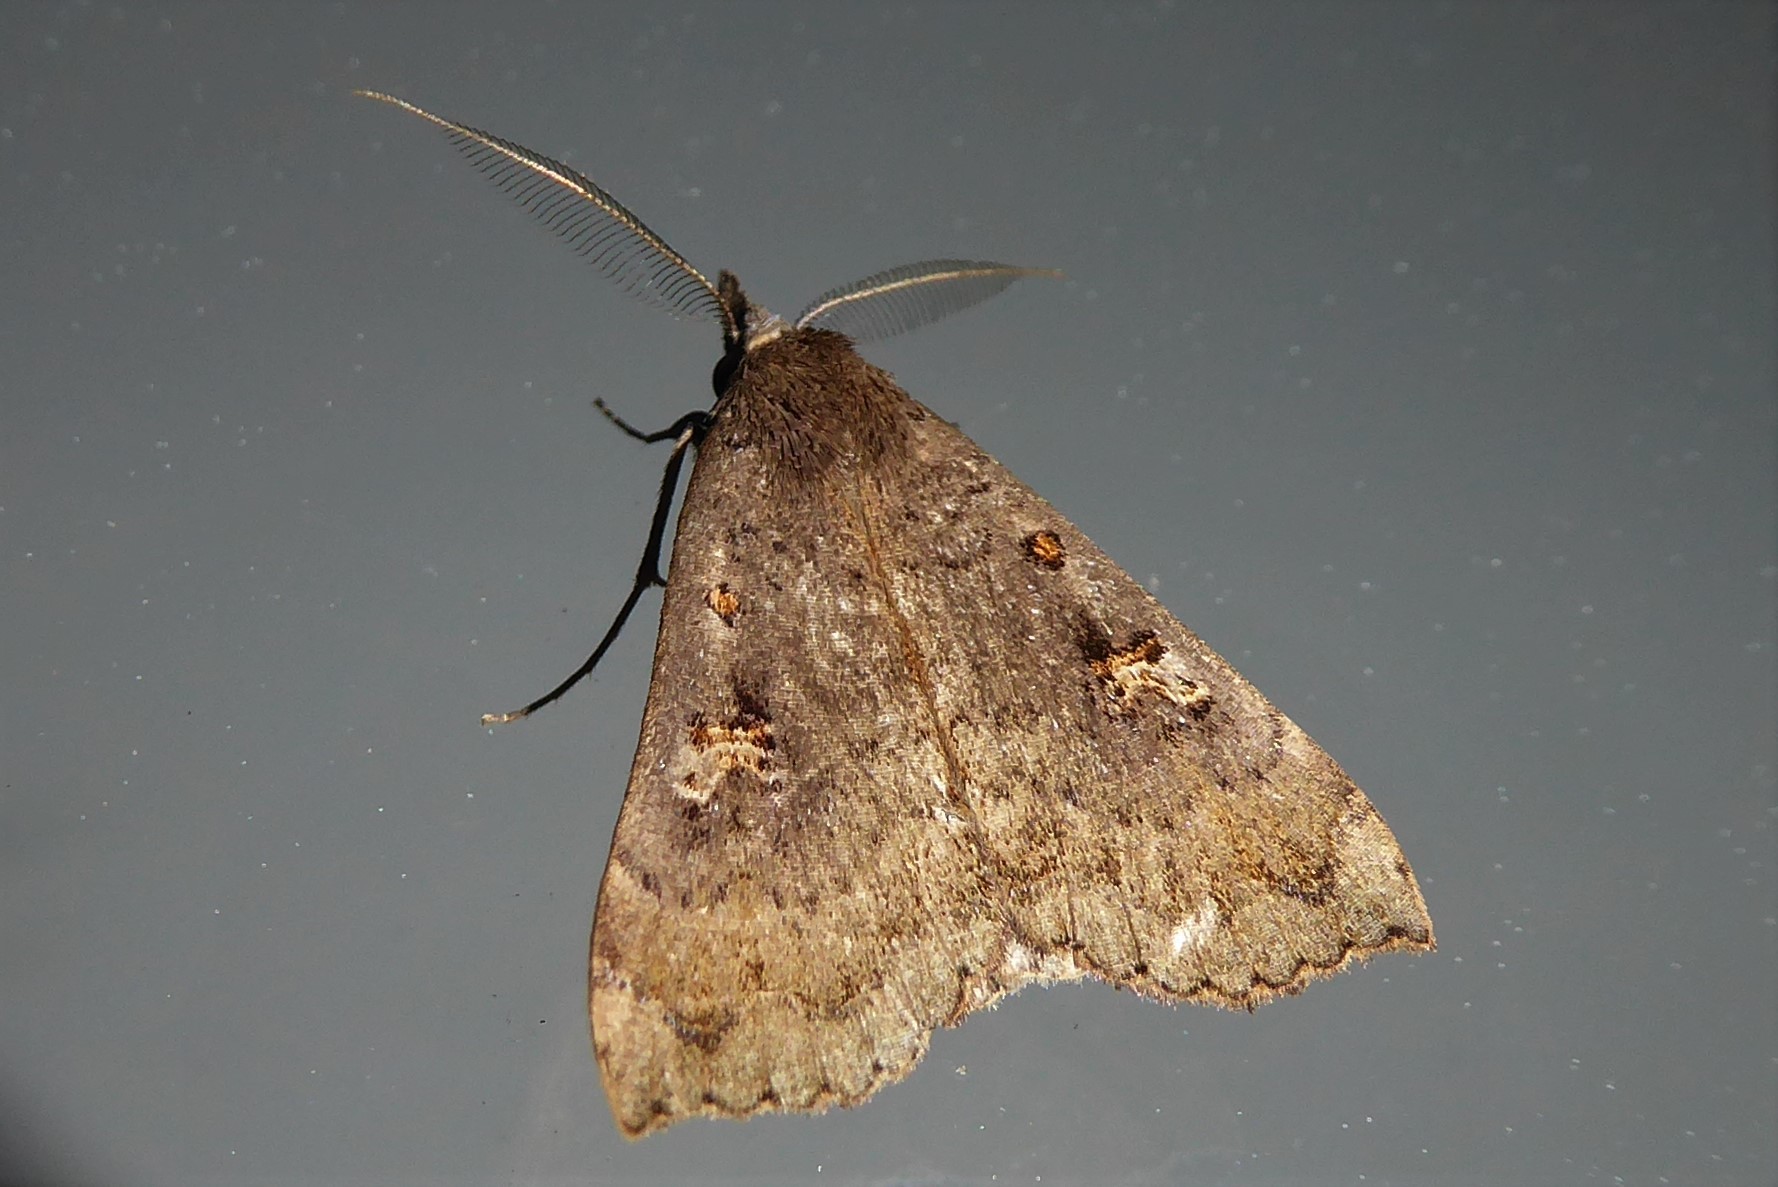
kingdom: Animalia
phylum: Arthropoda
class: Insecta
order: Lepidoptera
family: Erebidae
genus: Rhapsa
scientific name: Rhapsa scotosialis
